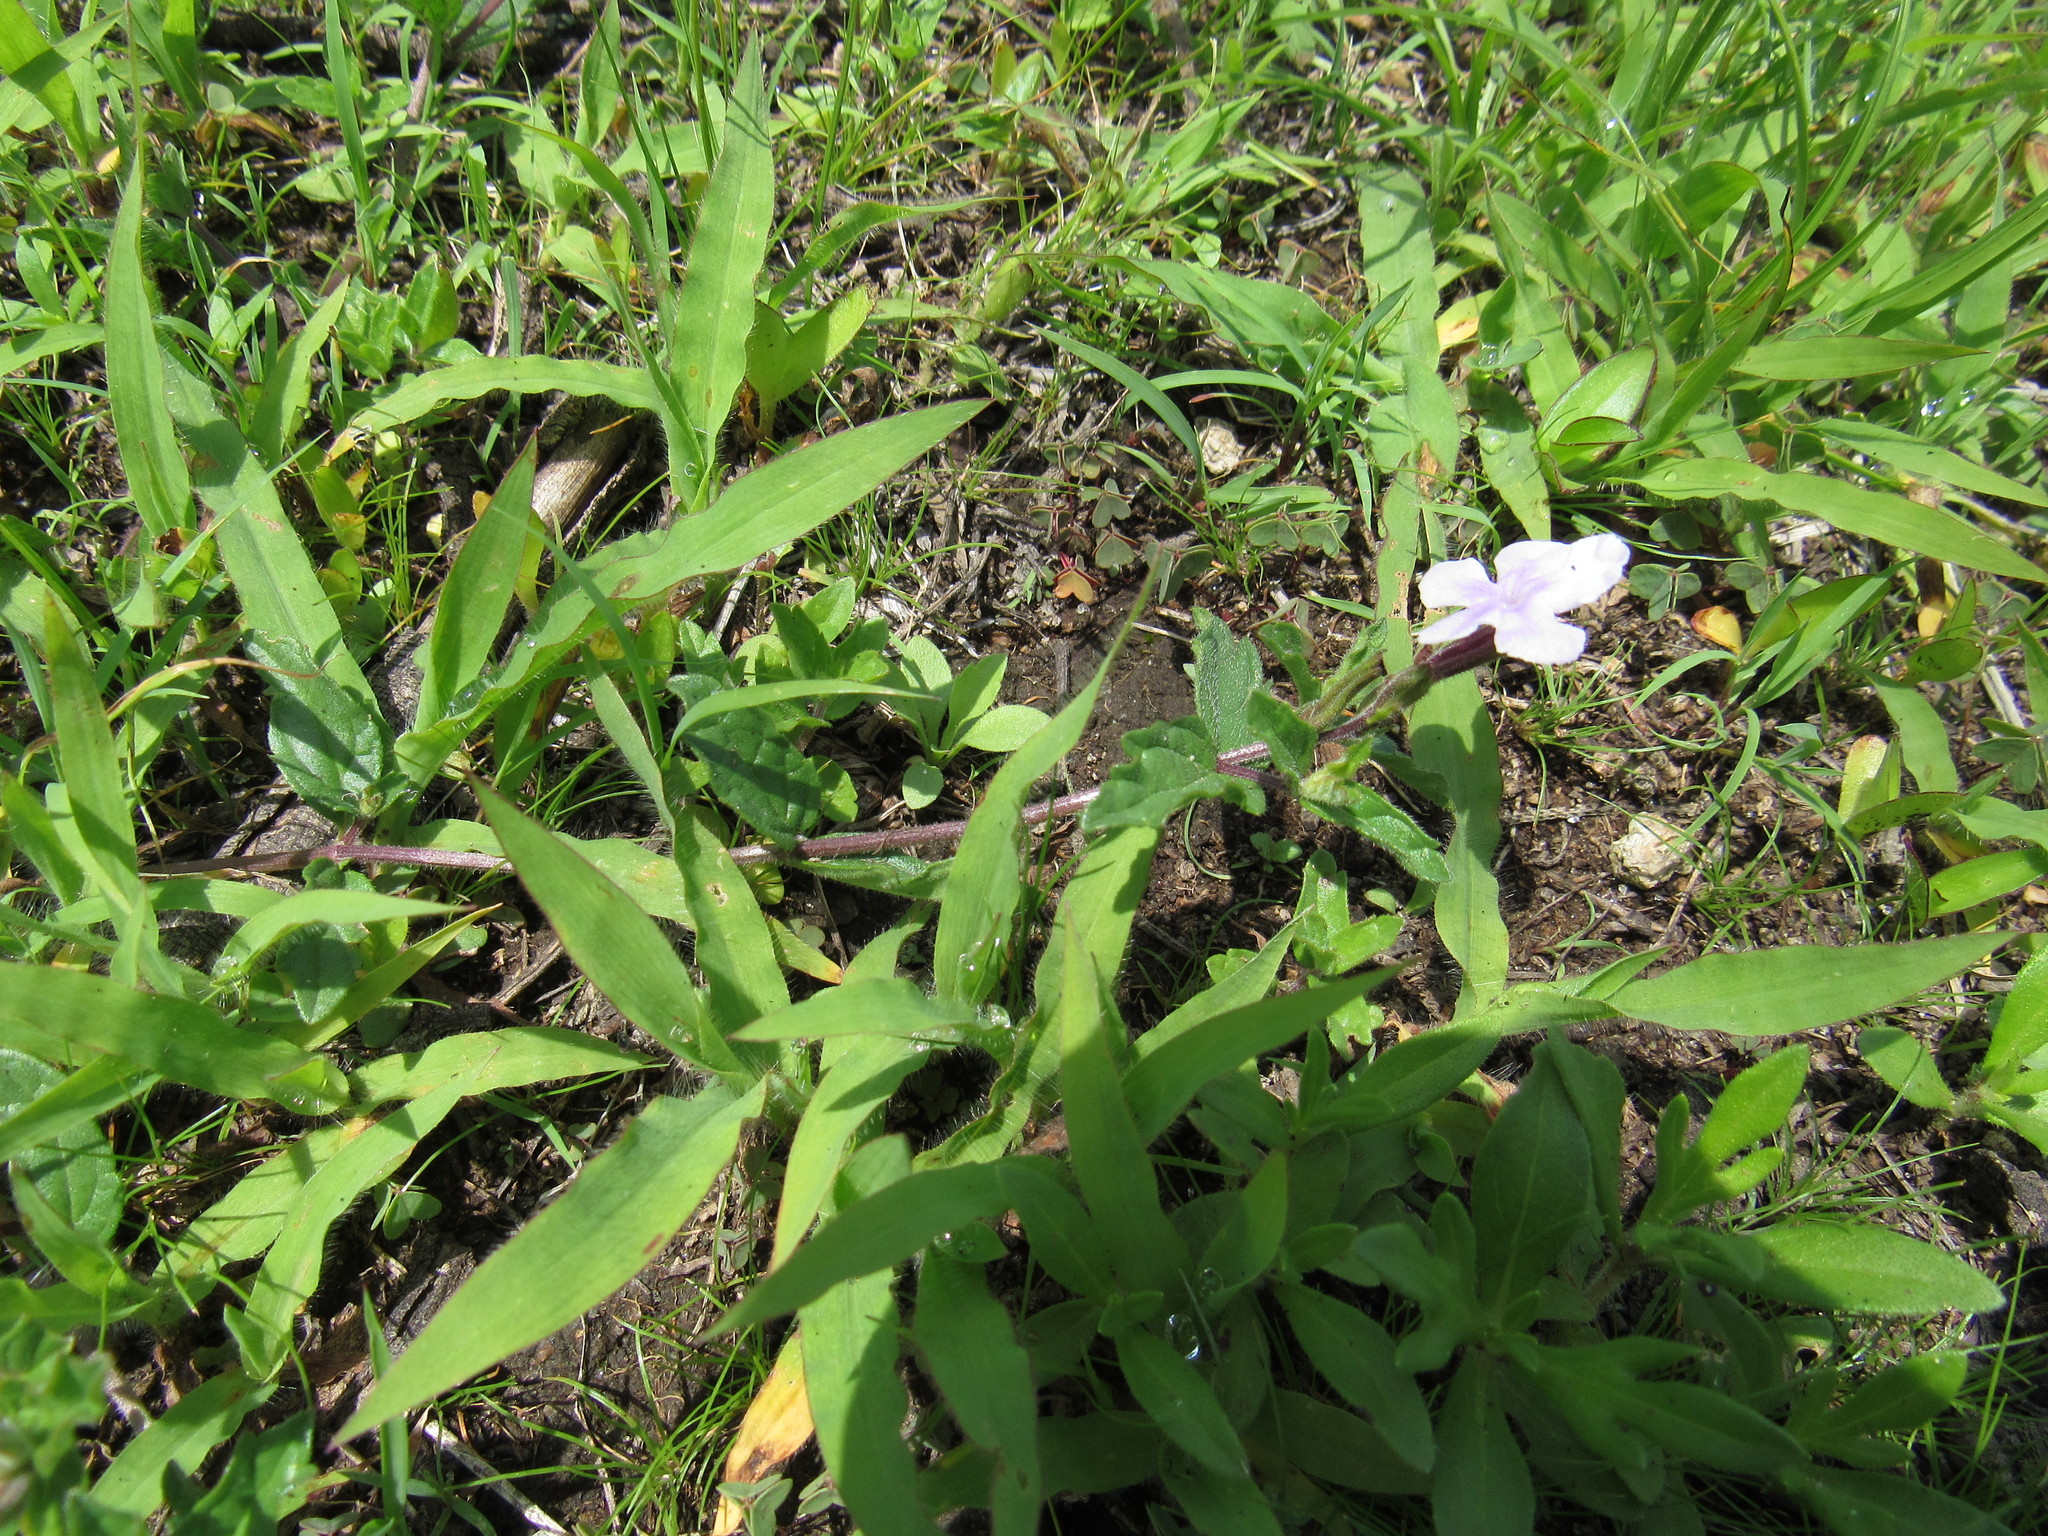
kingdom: Plantae
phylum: Tracheophyta
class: Magnoliopsida
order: Lamiales
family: Verbenaceae
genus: Priva
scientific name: Priva grandiflora
